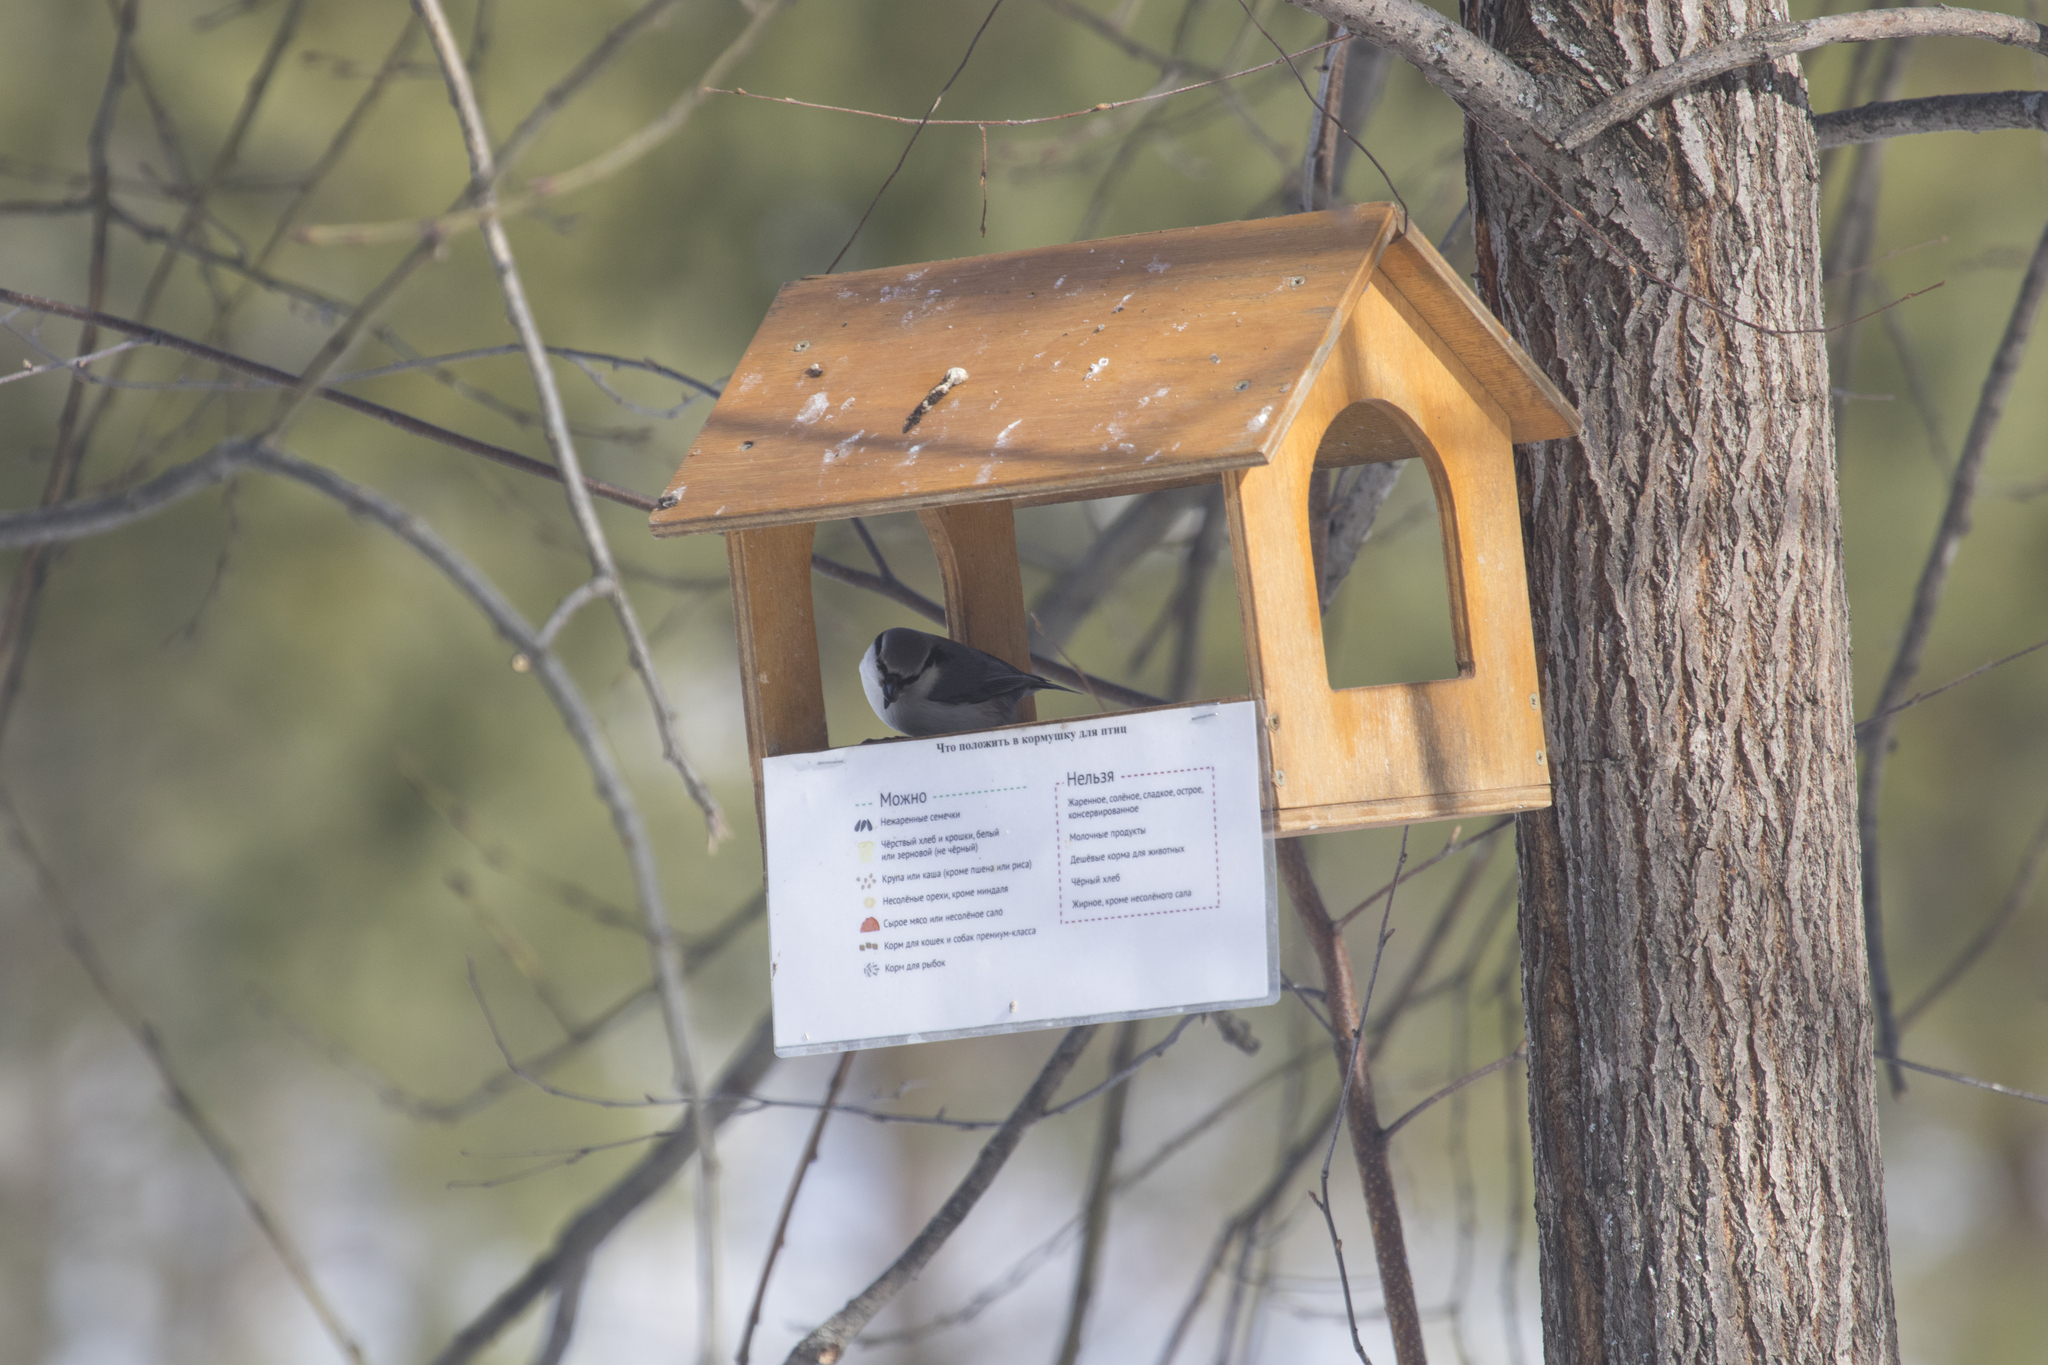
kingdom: Animalia
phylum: Chordata
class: Aves
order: Passeriformes
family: Sittidae
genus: Sitta
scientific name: Sitta europaea
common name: Eurasian nuthatch
